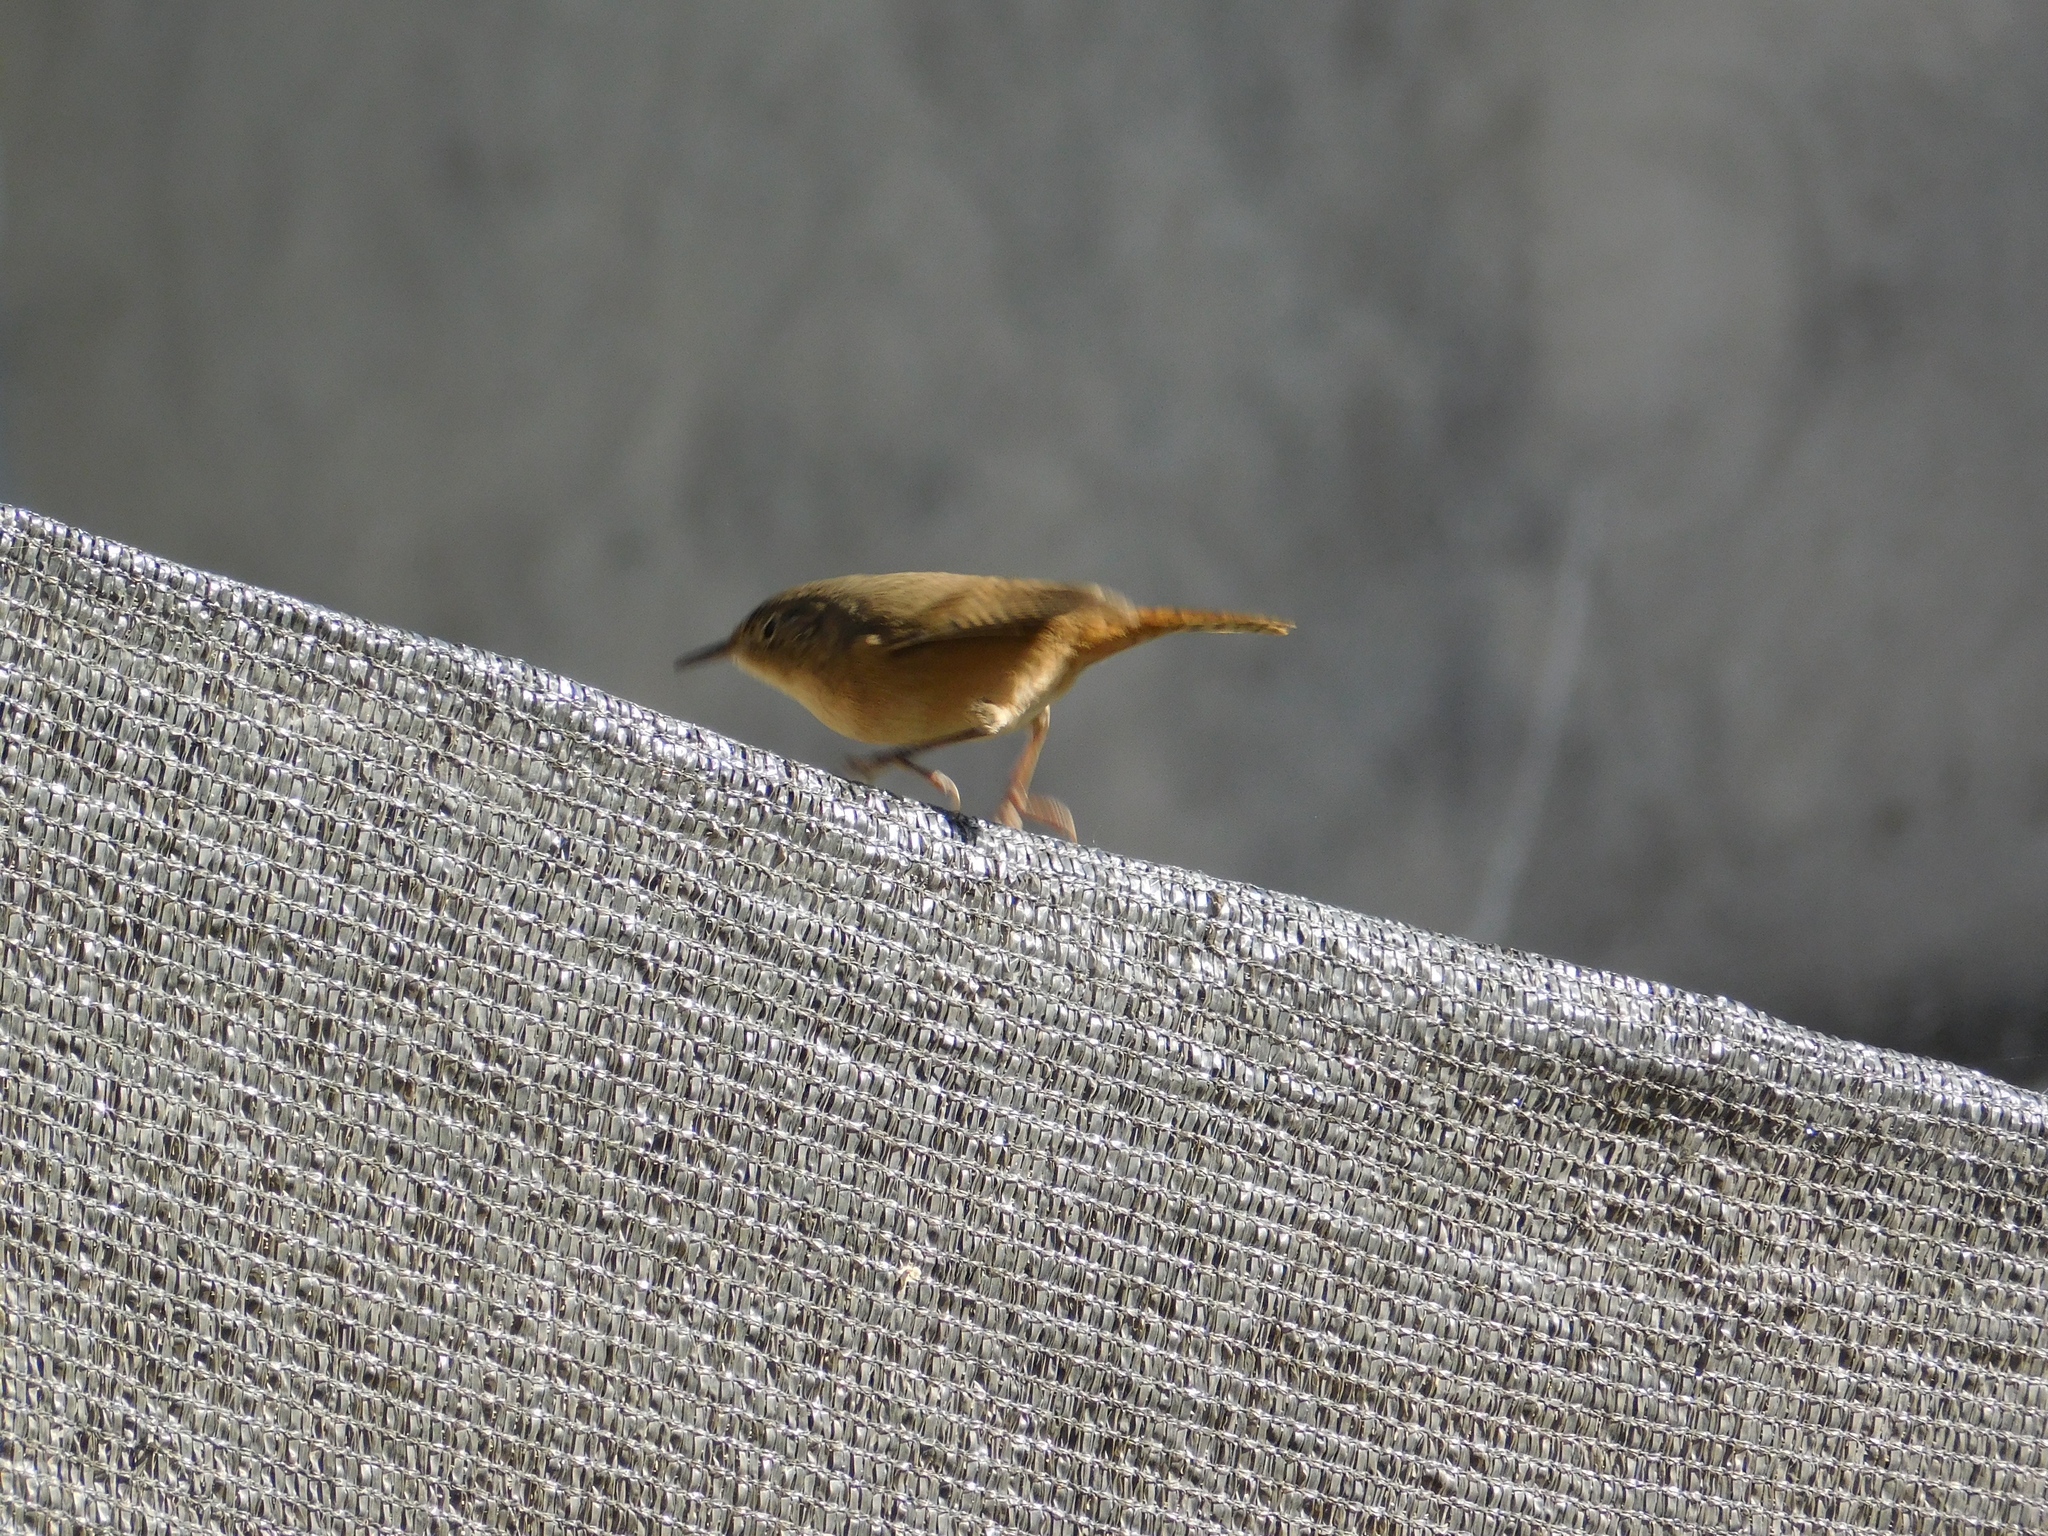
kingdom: Animalia
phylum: Chordata
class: Aves
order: Passeriformes
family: Troglodytidae
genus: Troglodytes
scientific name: Troglodytes aedon
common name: House wren
